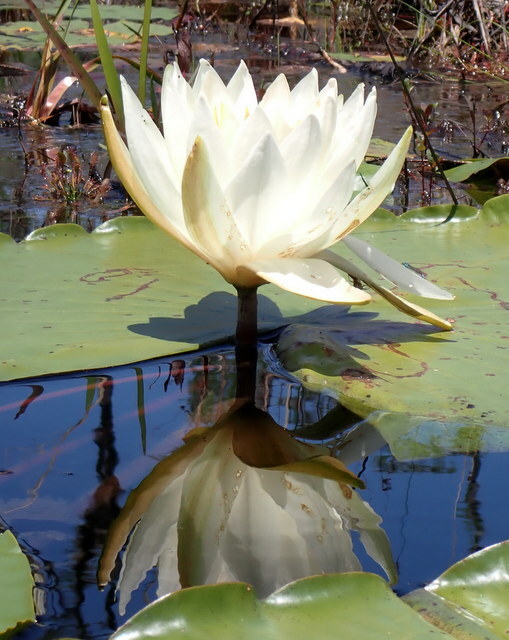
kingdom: Plantae
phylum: Tracheophyta
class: Magnoliopsida
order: Nymphaeales
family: Nymphaeaceae
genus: Nymphaea
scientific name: Nymphaea odorata
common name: Fragrant water-lily
